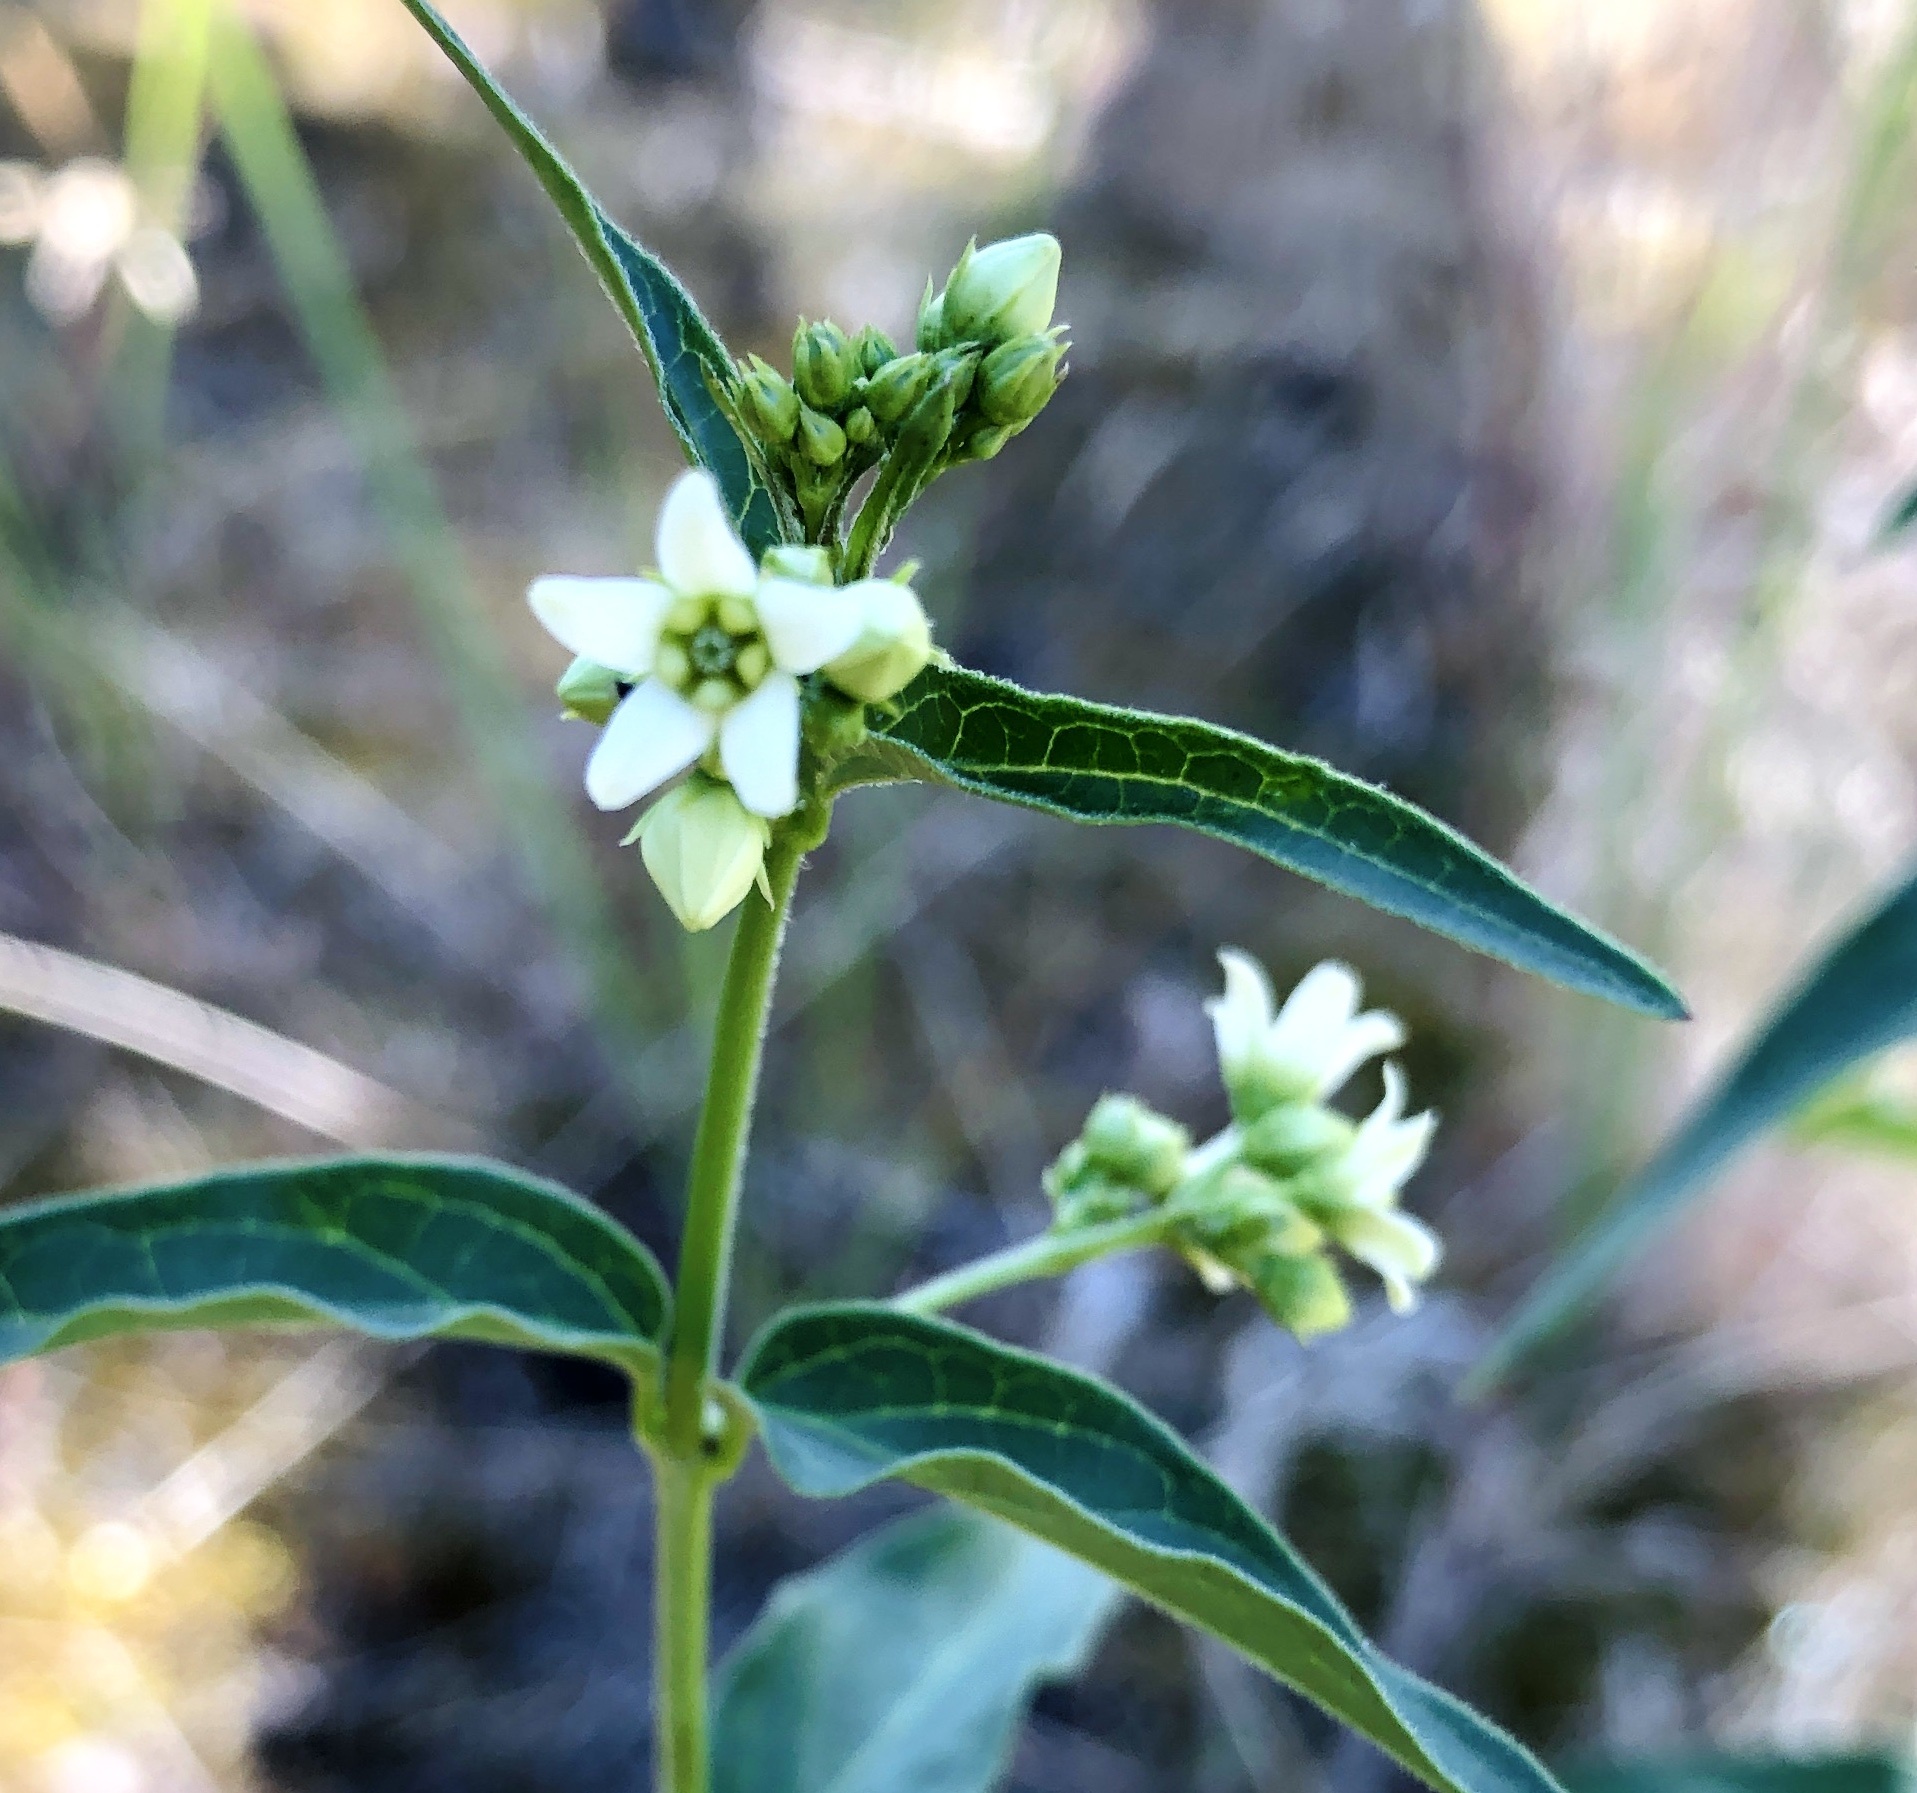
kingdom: Plantae
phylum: Tracheophyta
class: Magnoliopsida
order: Gentianales
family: Apocynaceae
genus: Vincetoxicum
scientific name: Vincetoxicum hirundinaria
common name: White swallowwort
